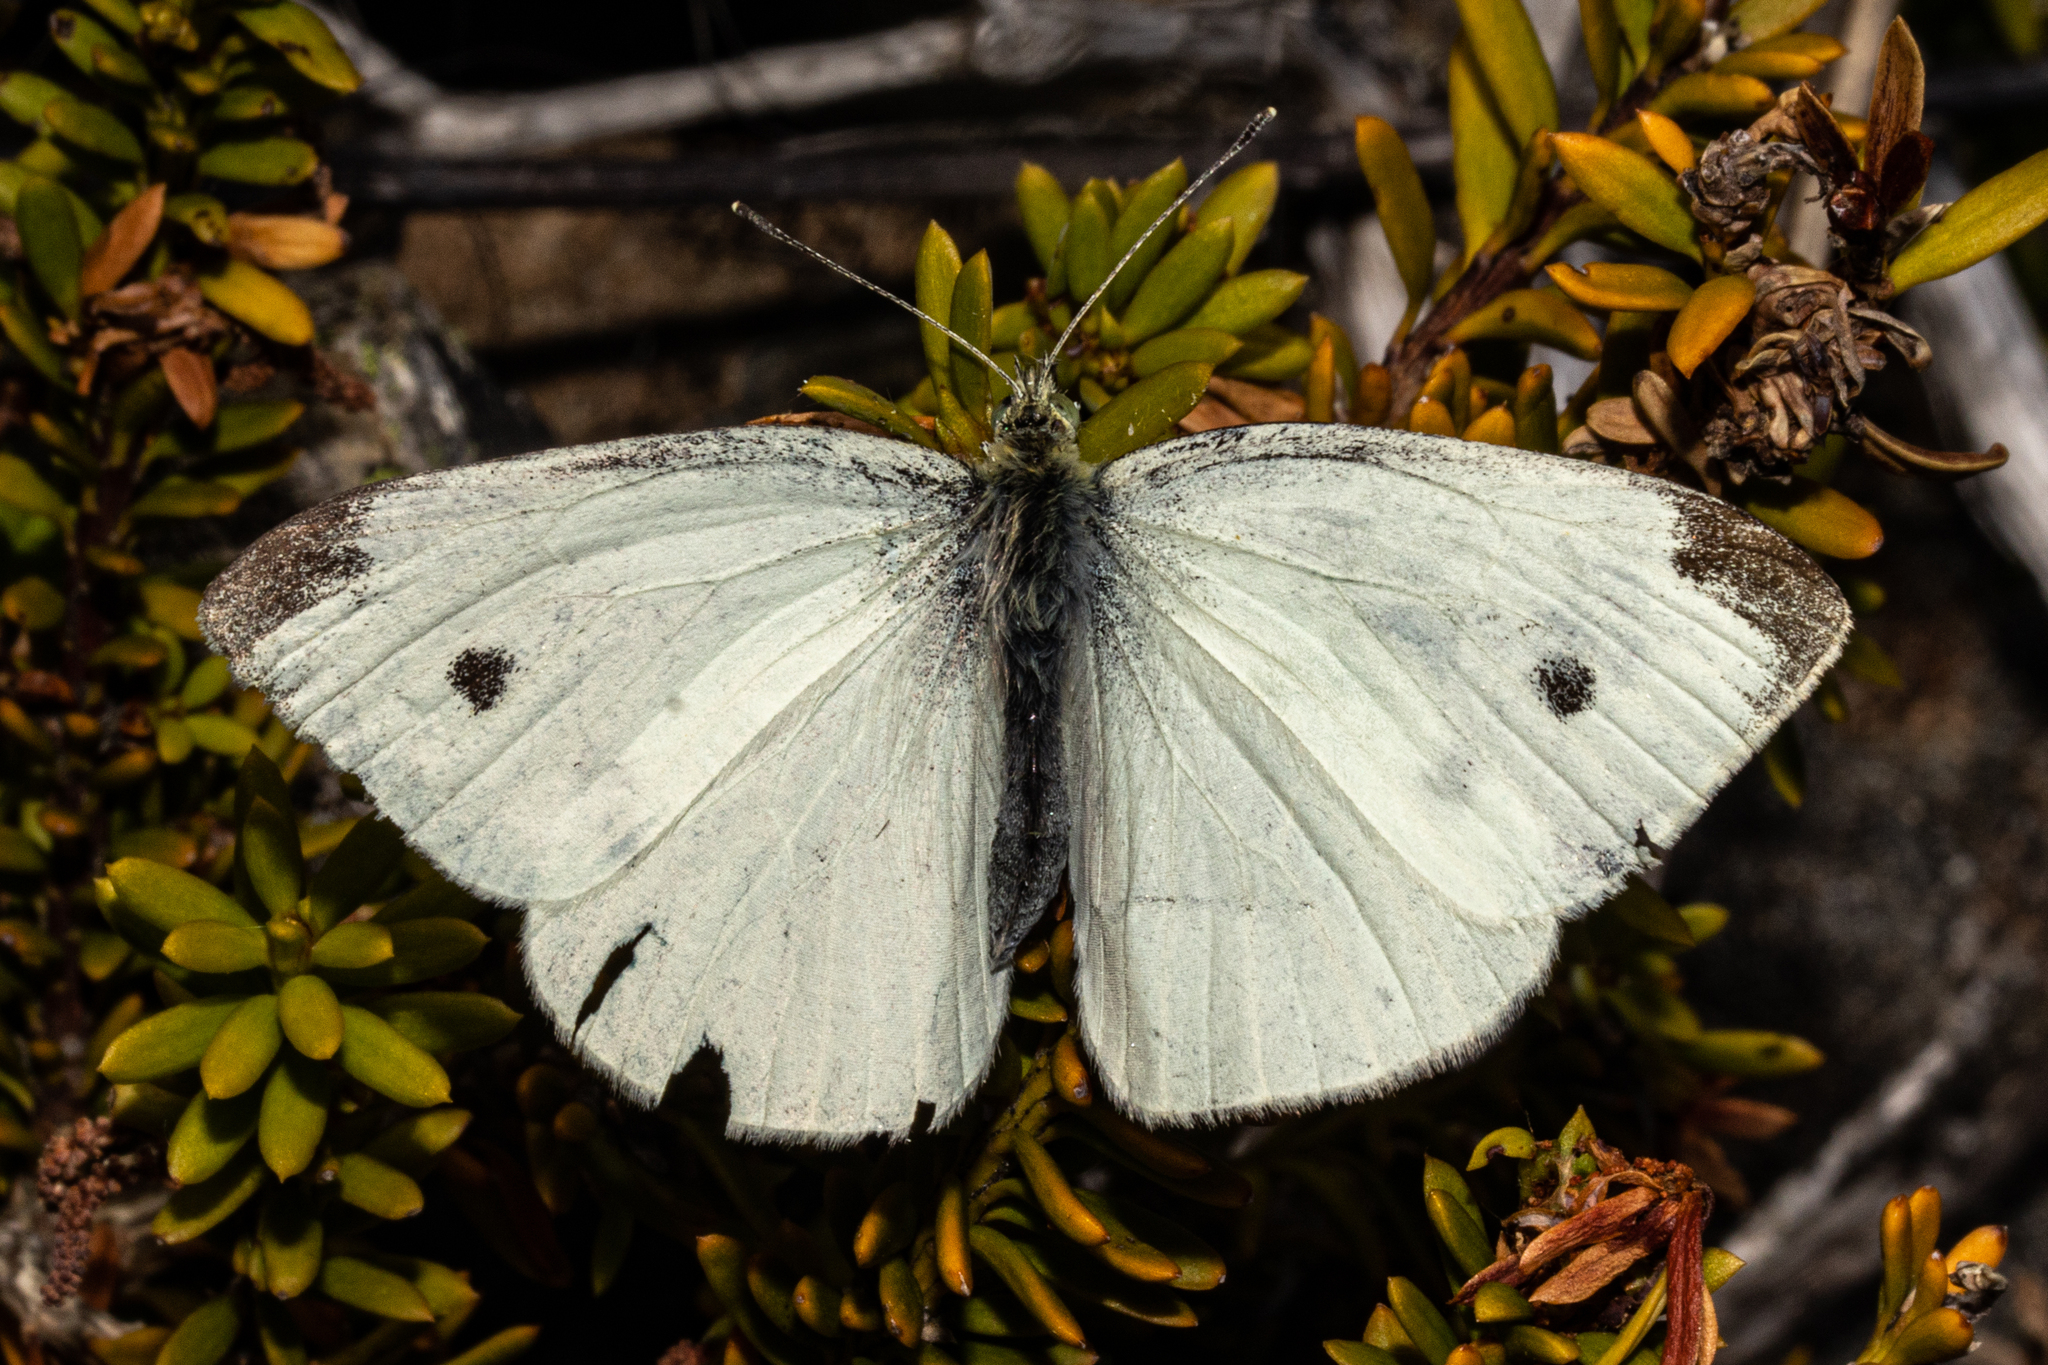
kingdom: Animalia
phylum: Arthropoda
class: Insecta
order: Lepidoptera
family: Pieridae
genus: Pieris
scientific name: Pieris rapae
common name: Small white
